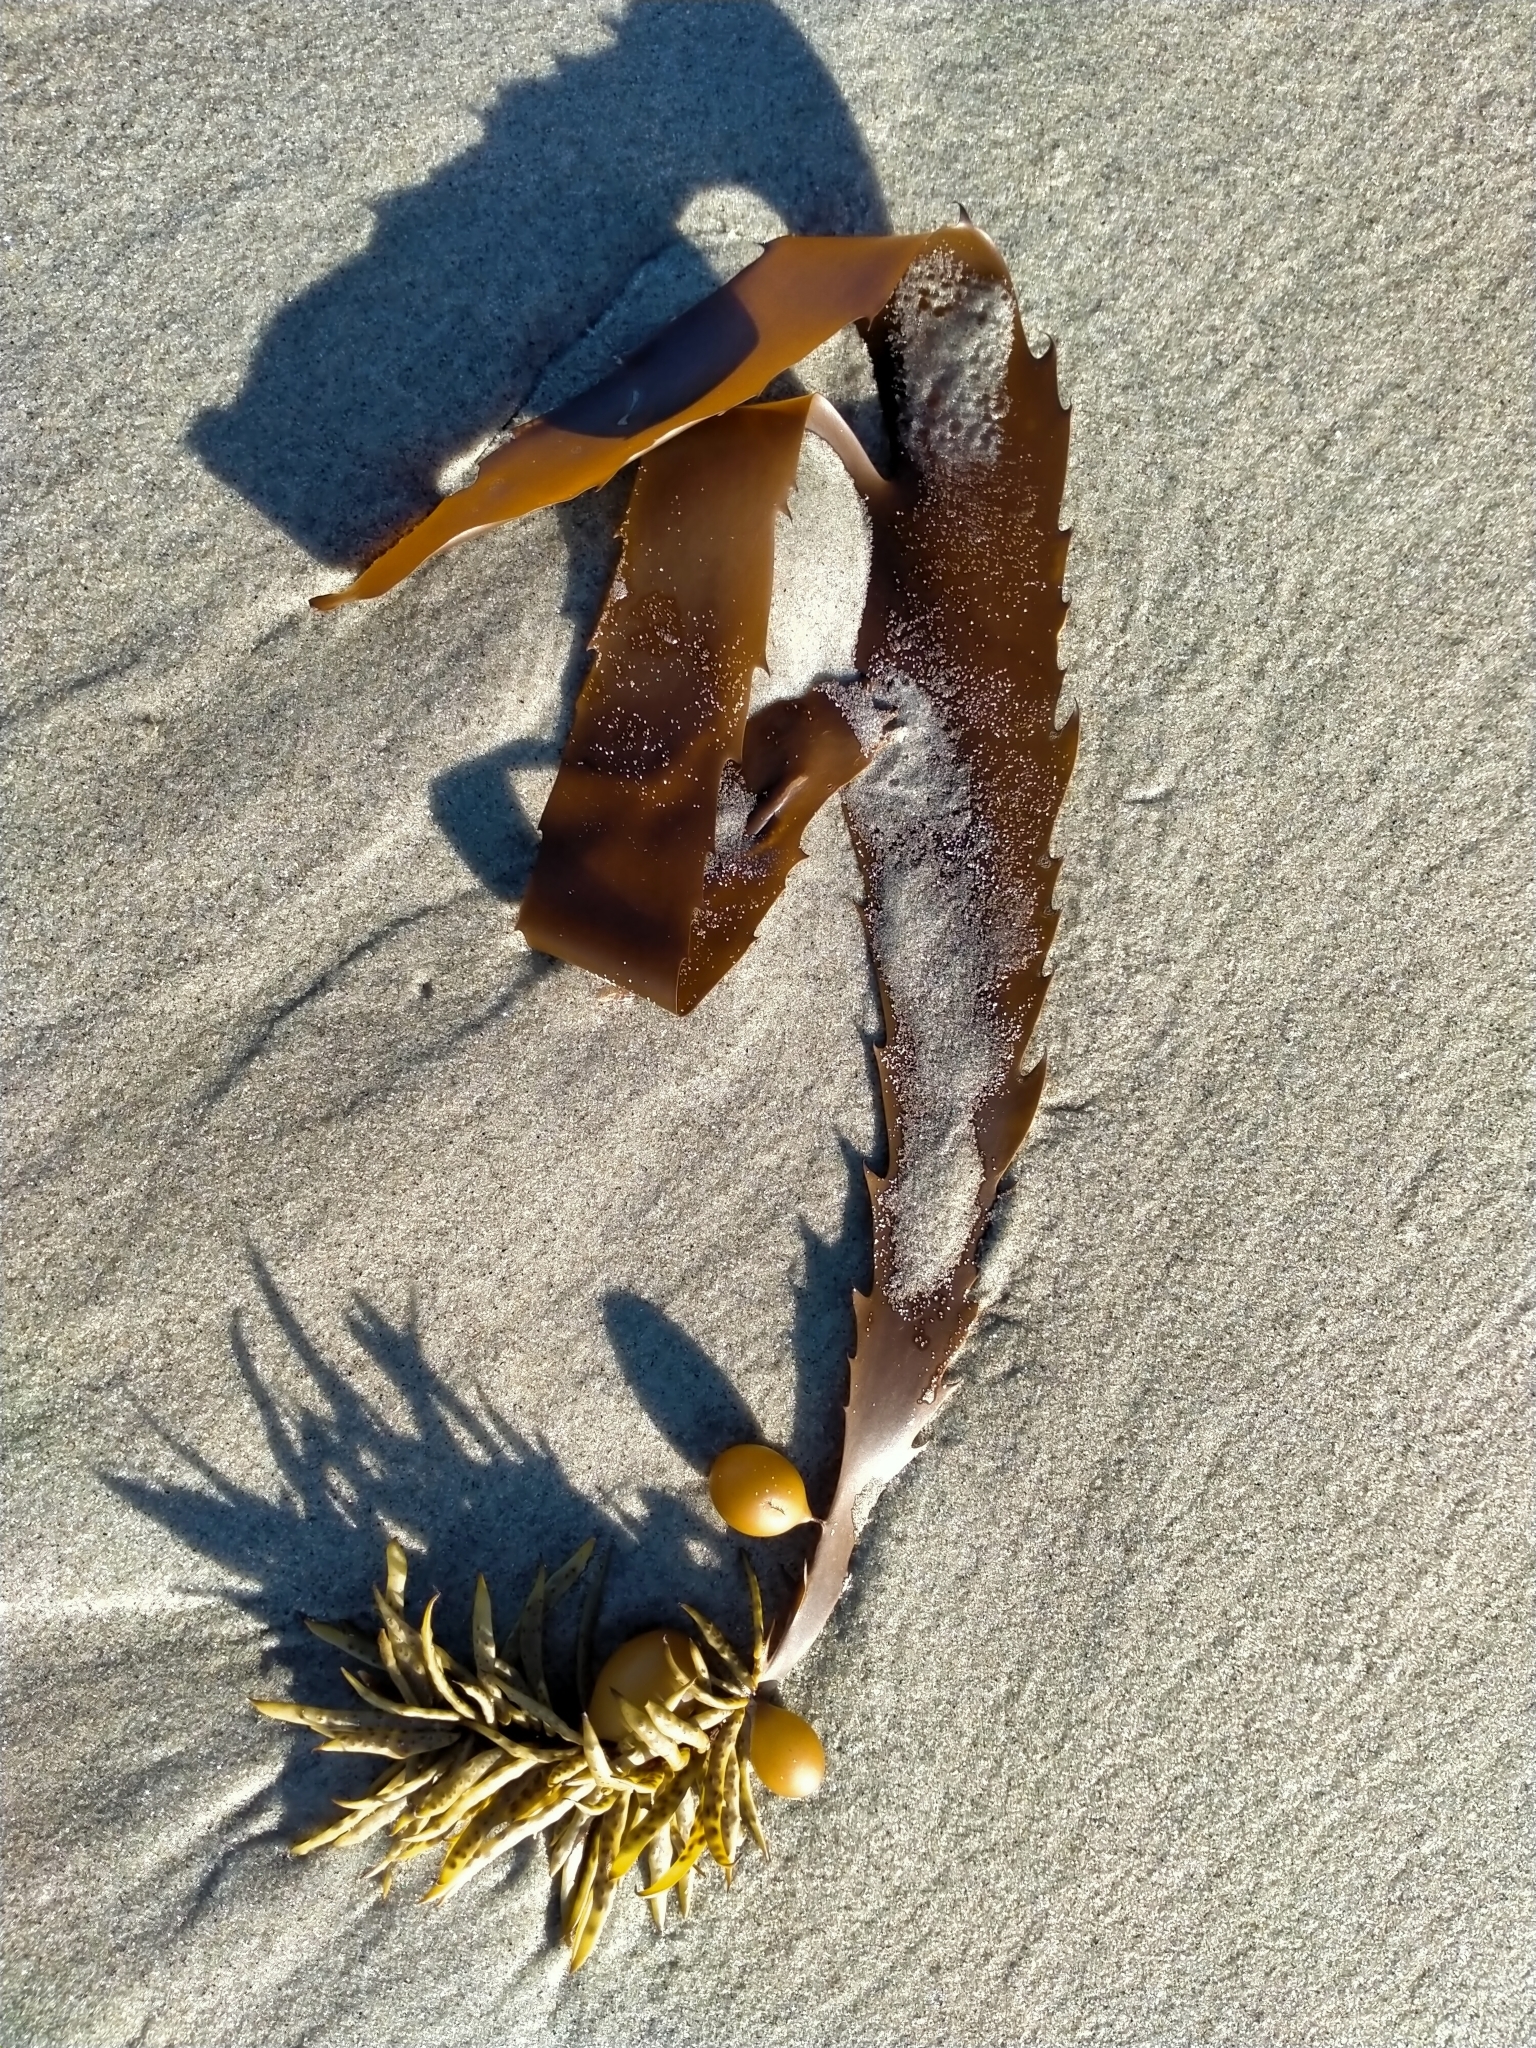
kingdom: Chromista
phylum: Ochrophyta
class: Phaeophyceae
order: Fucales
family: Seirococcaceae
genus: Marginariella
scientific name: Marginariella boryana
